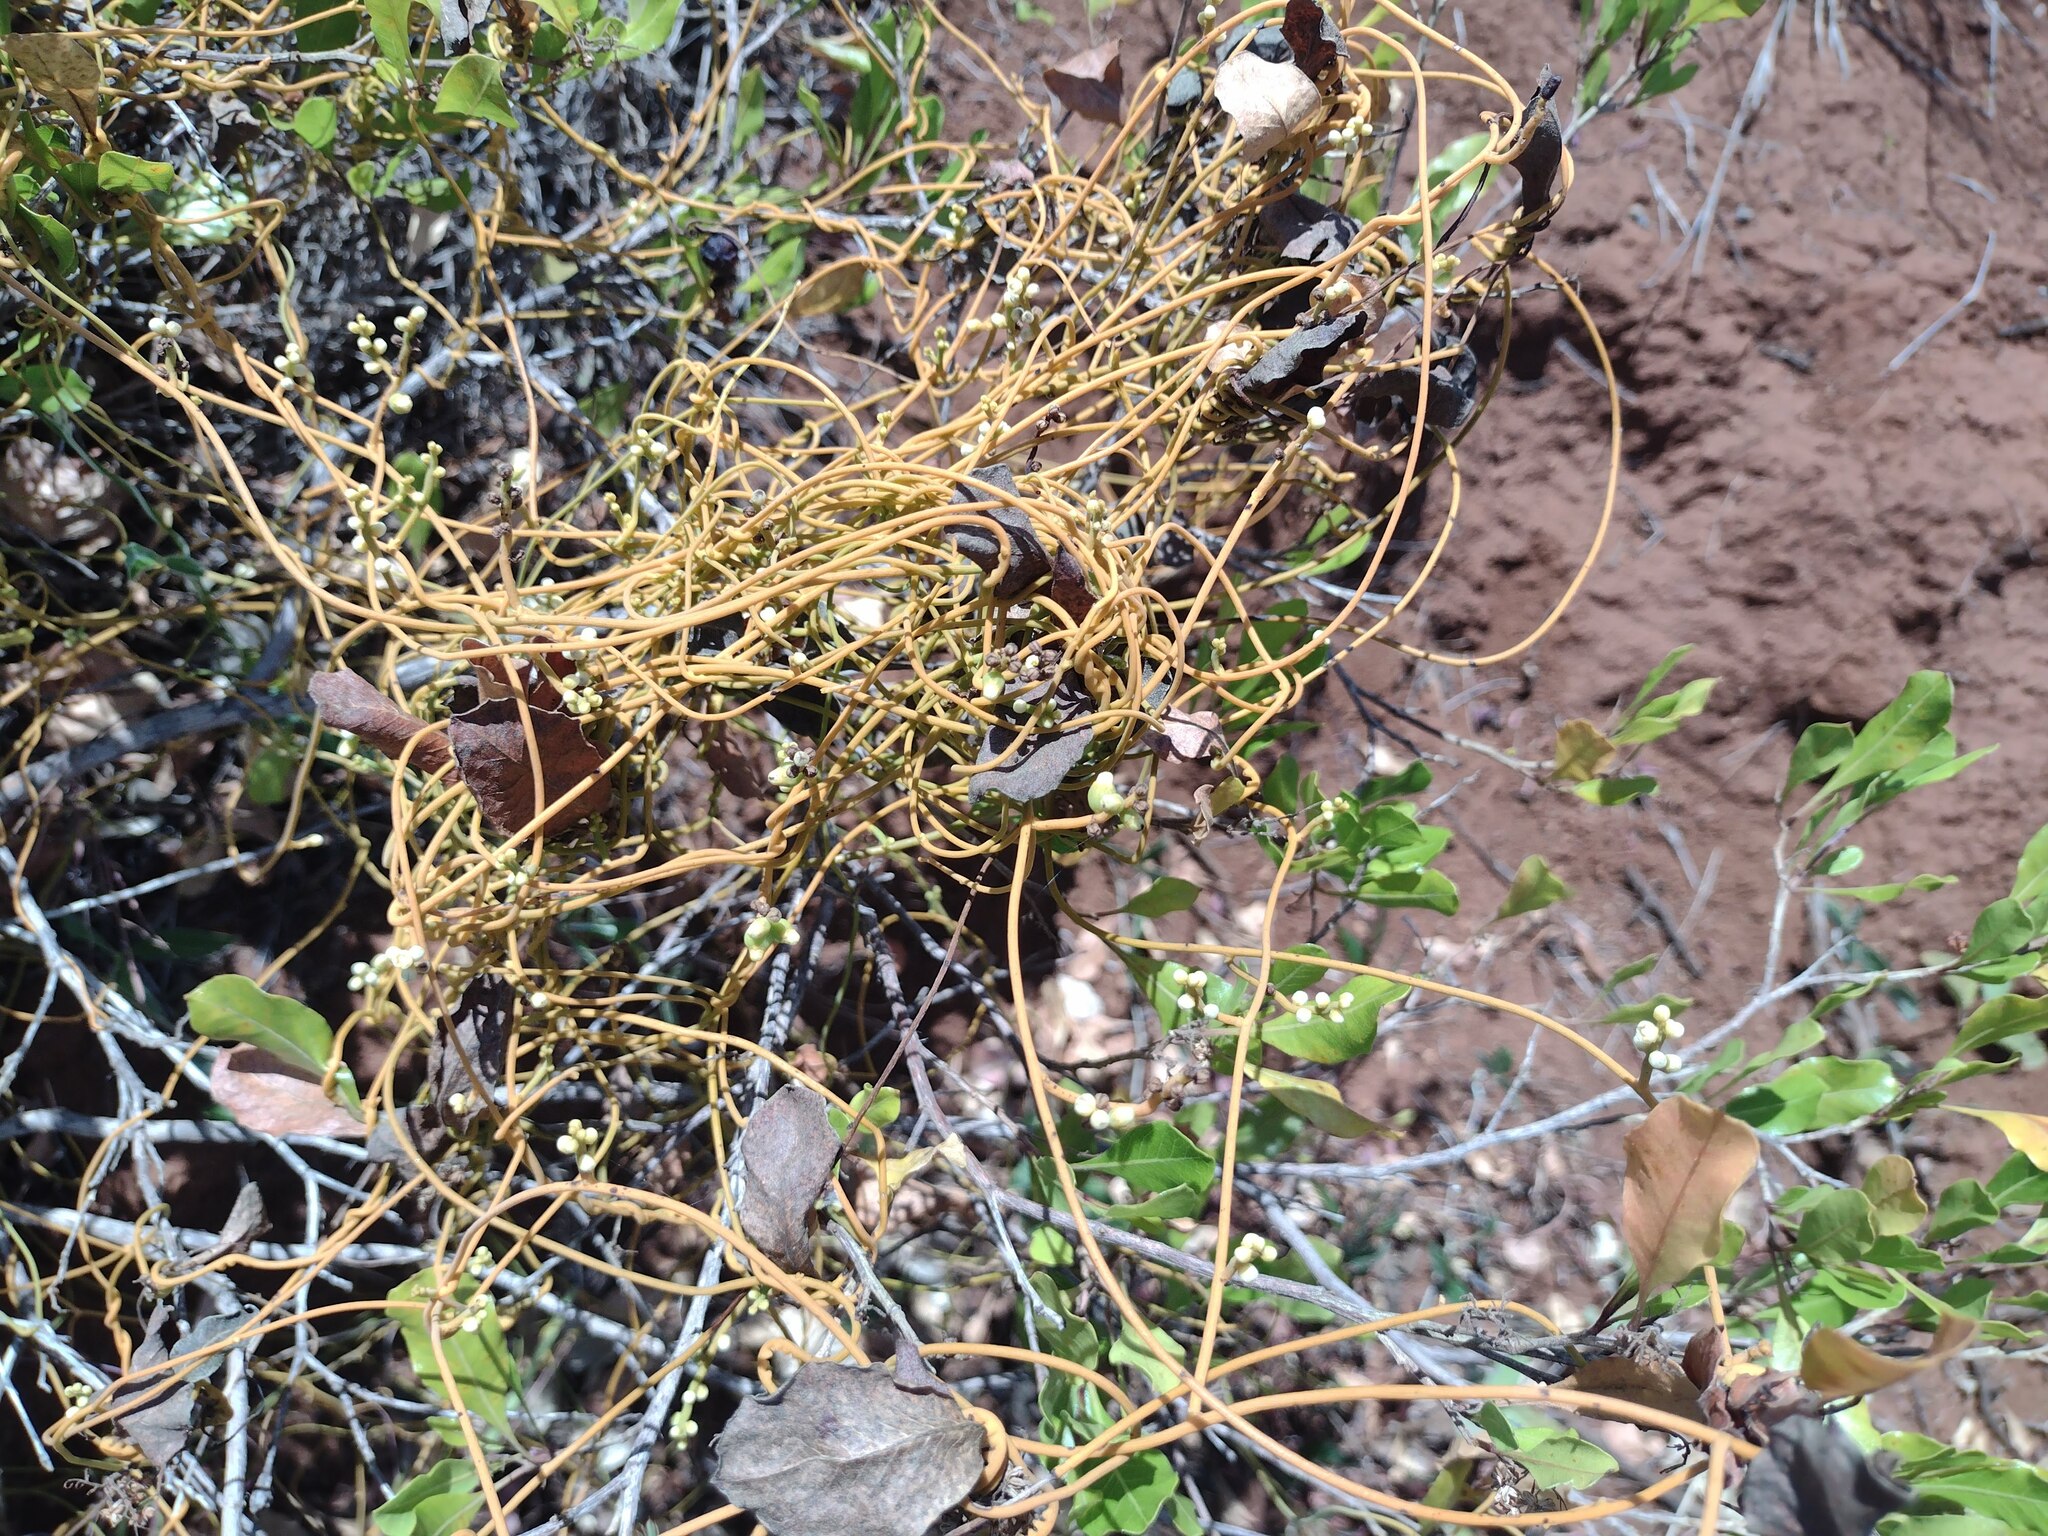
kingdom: Plantae
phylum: Tracheophyta
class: Magnoliopsida
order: Laurales
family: Lauraceae
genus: Cassytha
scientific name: Cassytha filiformis
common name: Dodder-laurel
